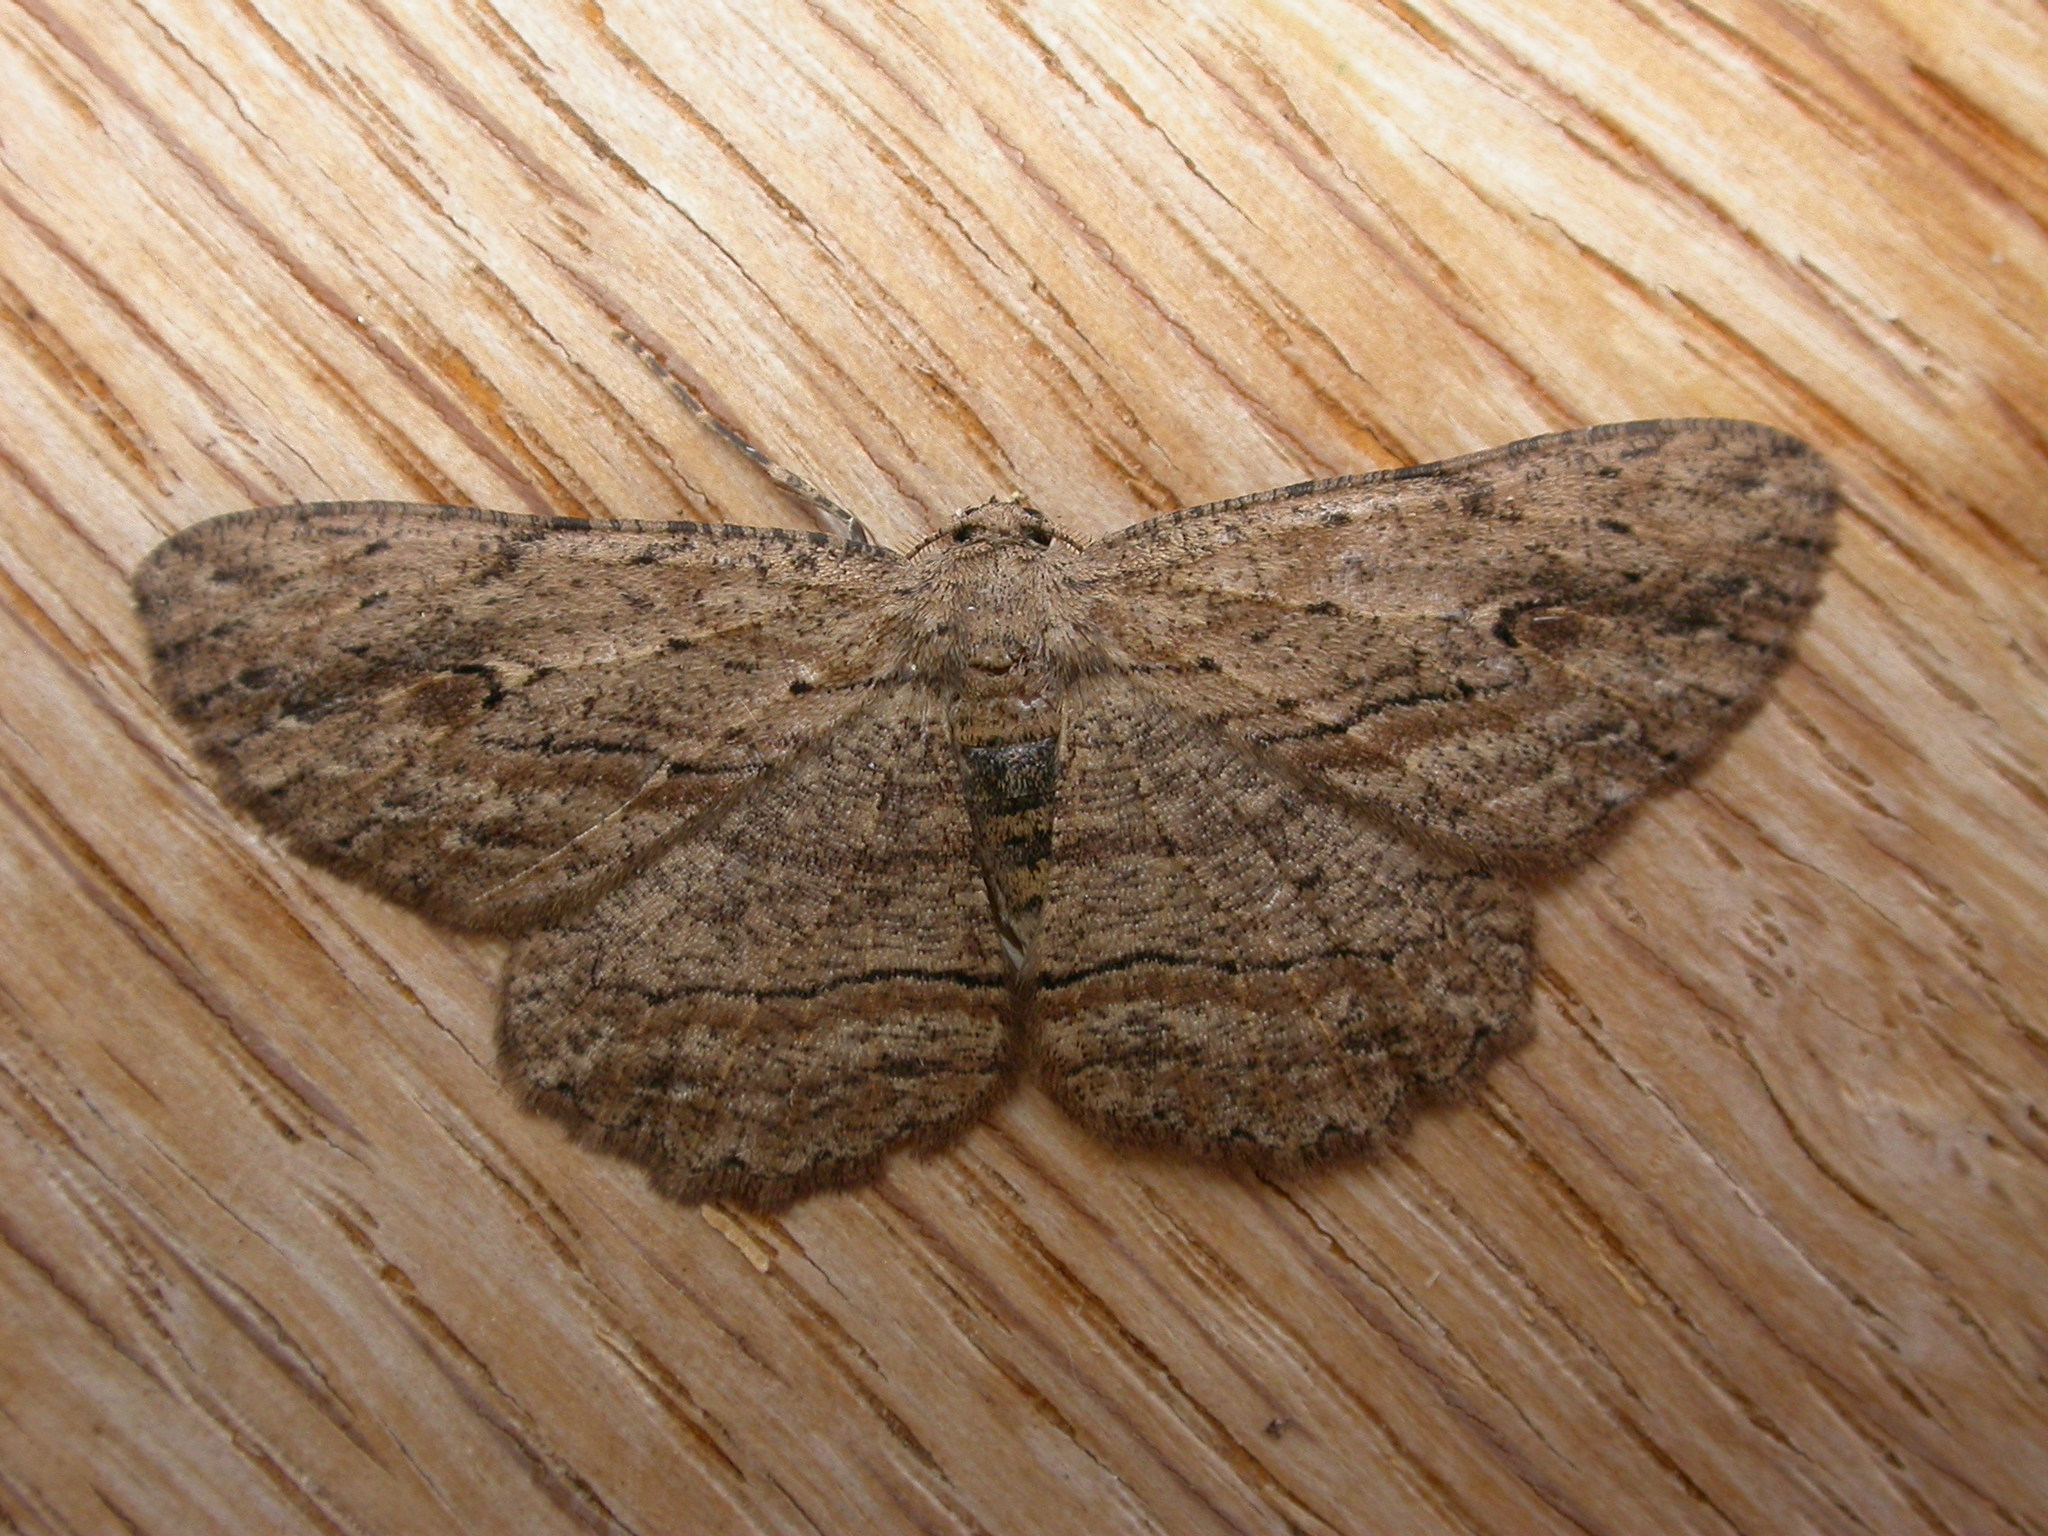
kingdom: Animalia
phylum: Arthropoda
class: Insecta
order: Lepidoptera
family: Geometridae
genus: Ectropis
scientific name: Ectropis excursaria
